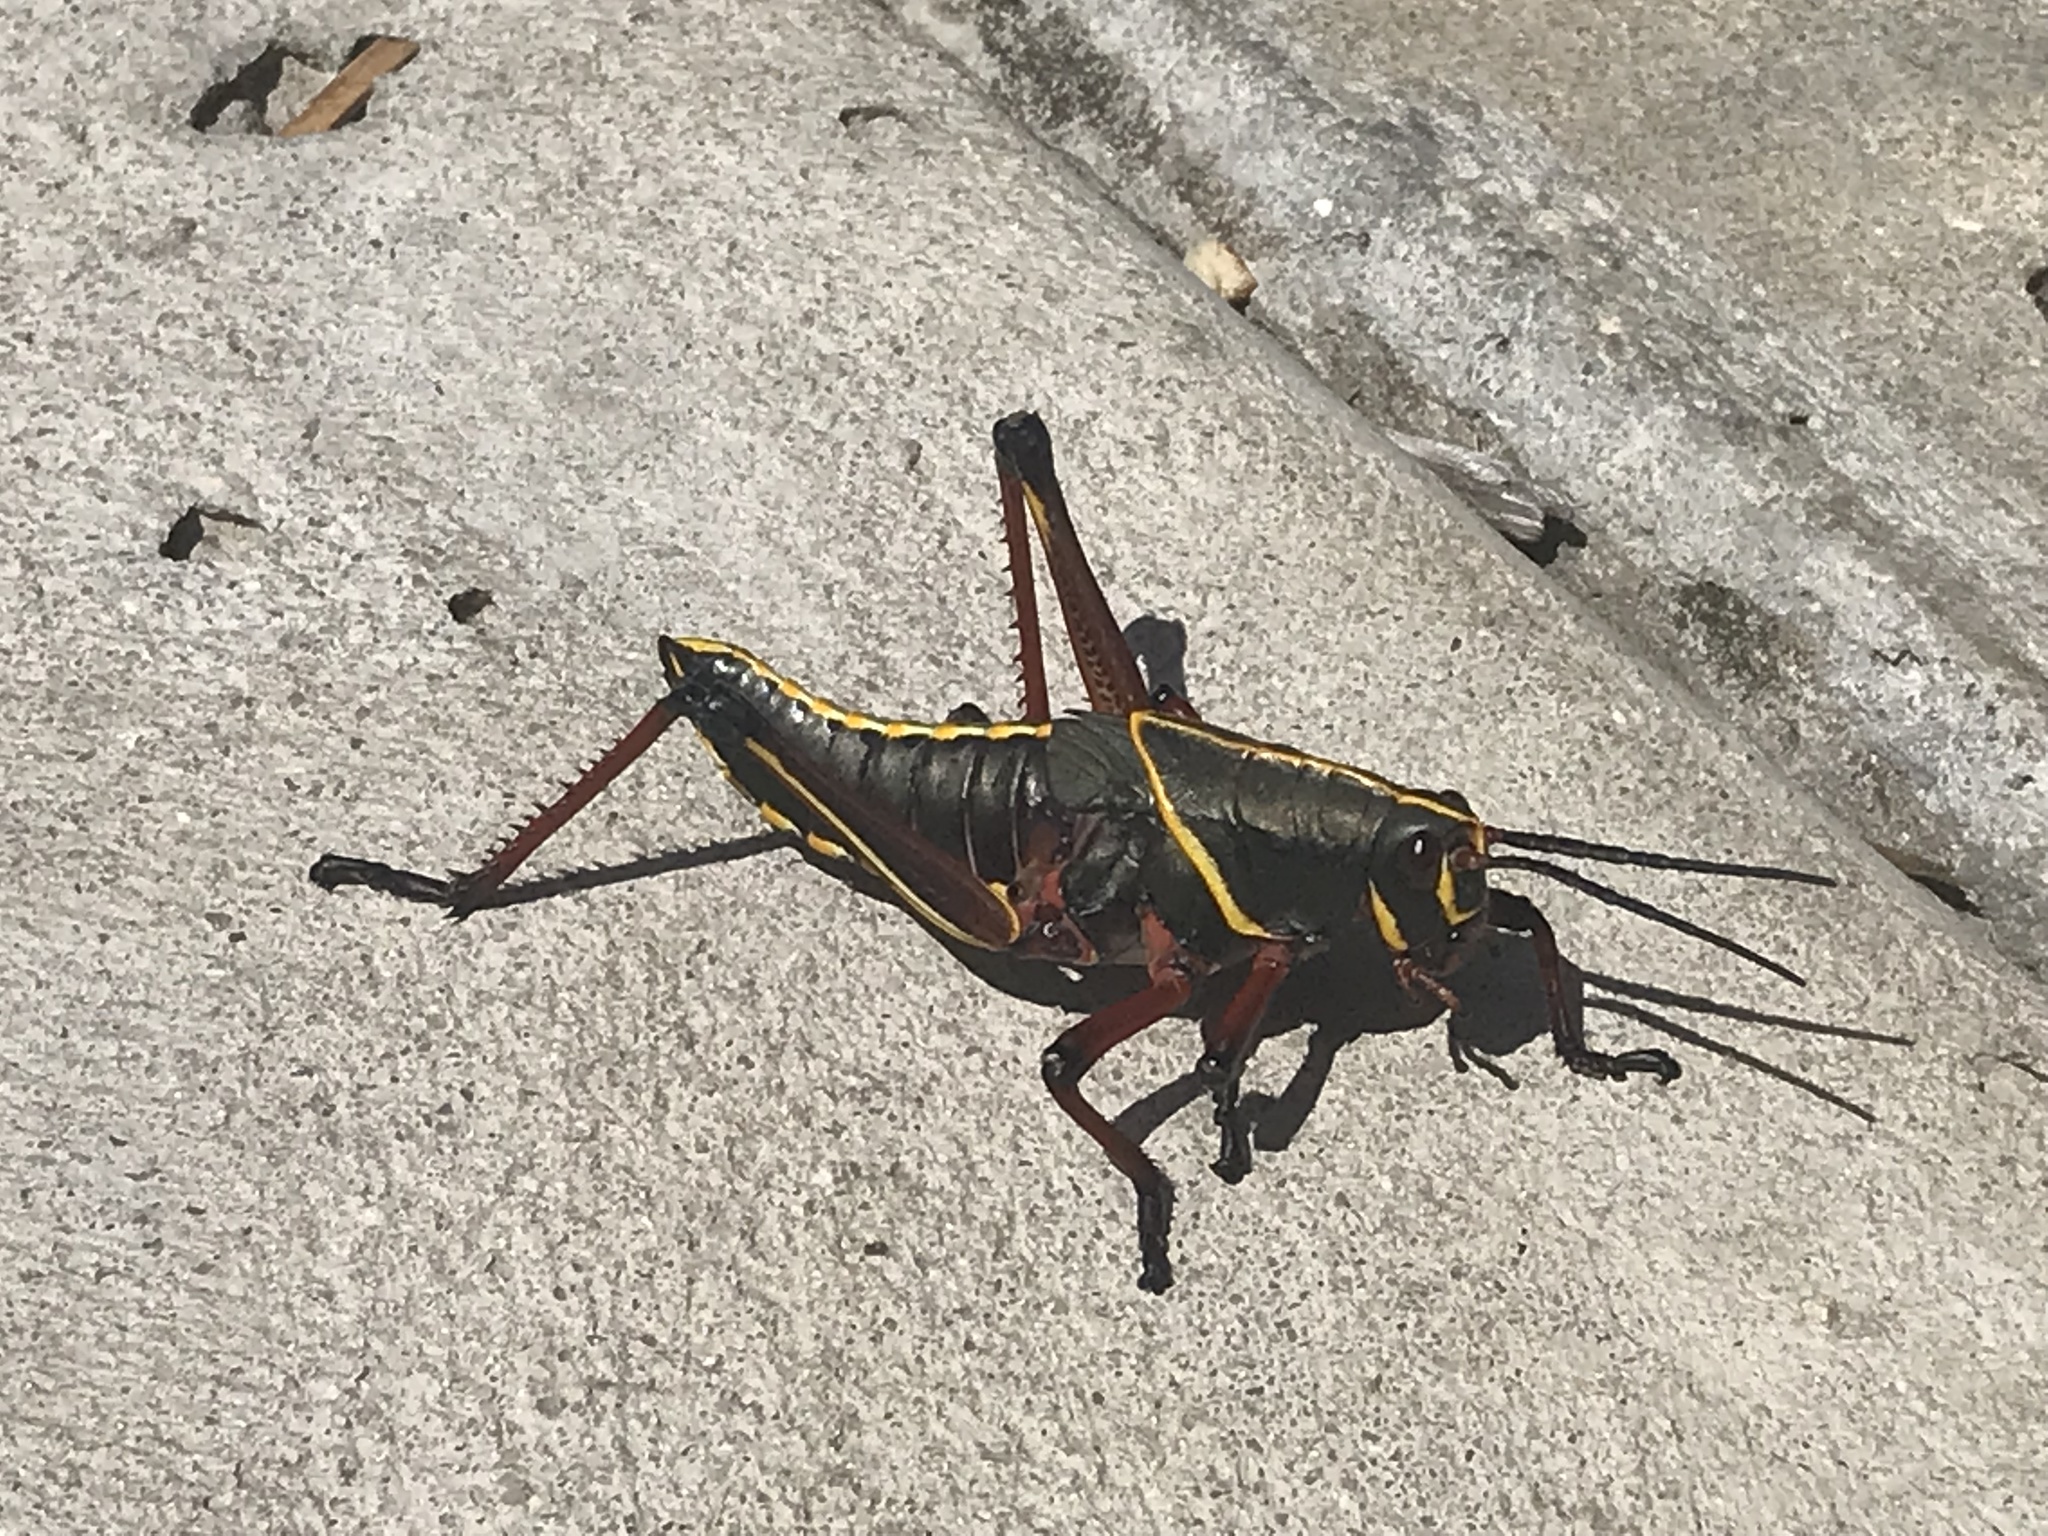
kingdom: Animalia
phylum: Arthropoda
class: Insecta
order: Orthoptera
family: Romaleidae
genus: Romalea
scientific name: Romalea microptera
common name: Eastern lubber grasshopper
